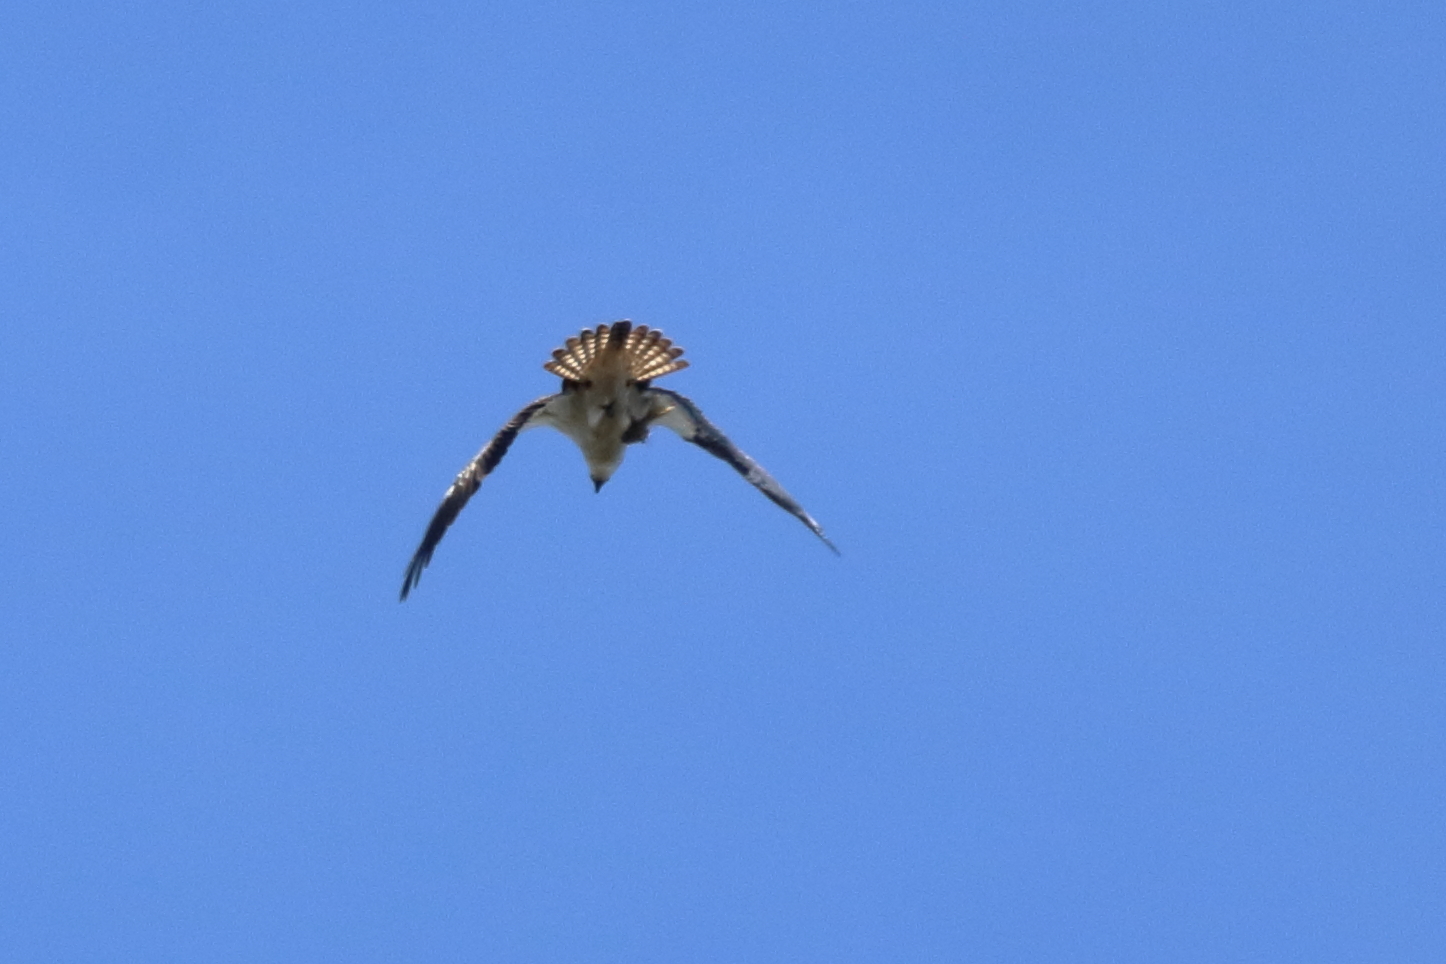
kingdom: Animalia
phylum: Chordata
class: Aves
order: Accipitriformes
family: Pandionidae
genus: Pandion
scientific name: Pandion haliaetus
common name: Osprey
